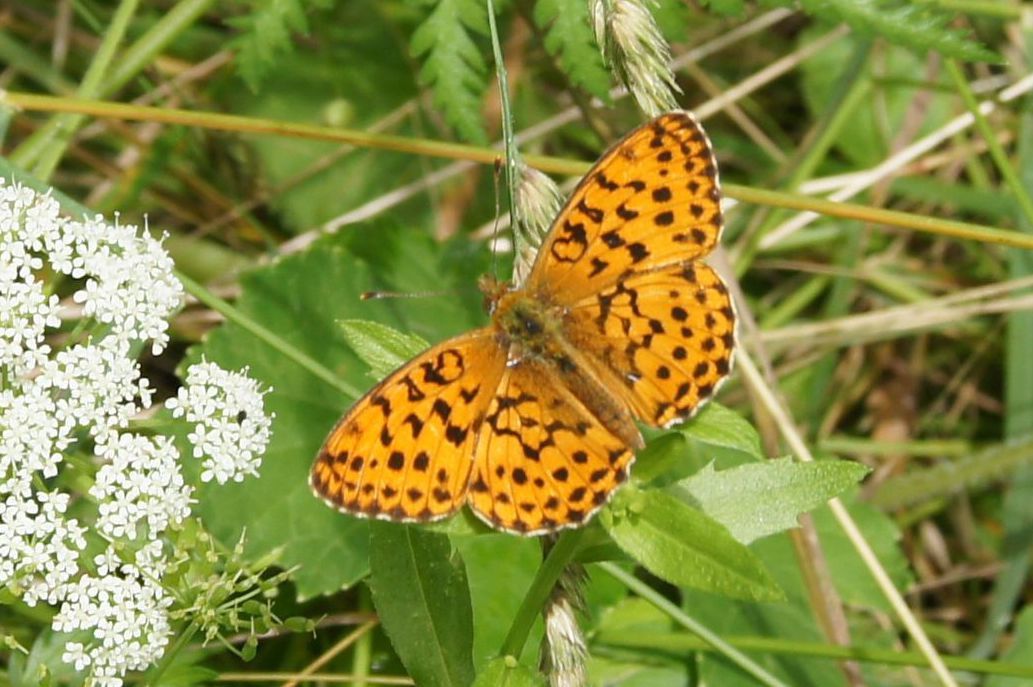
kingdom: Animalia
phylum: Arthropoda
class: Insecta
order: Lepidoptera
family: Nymphalidae
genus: Brenthis
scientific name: Brenthis daphne
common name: Marbled fritillary
